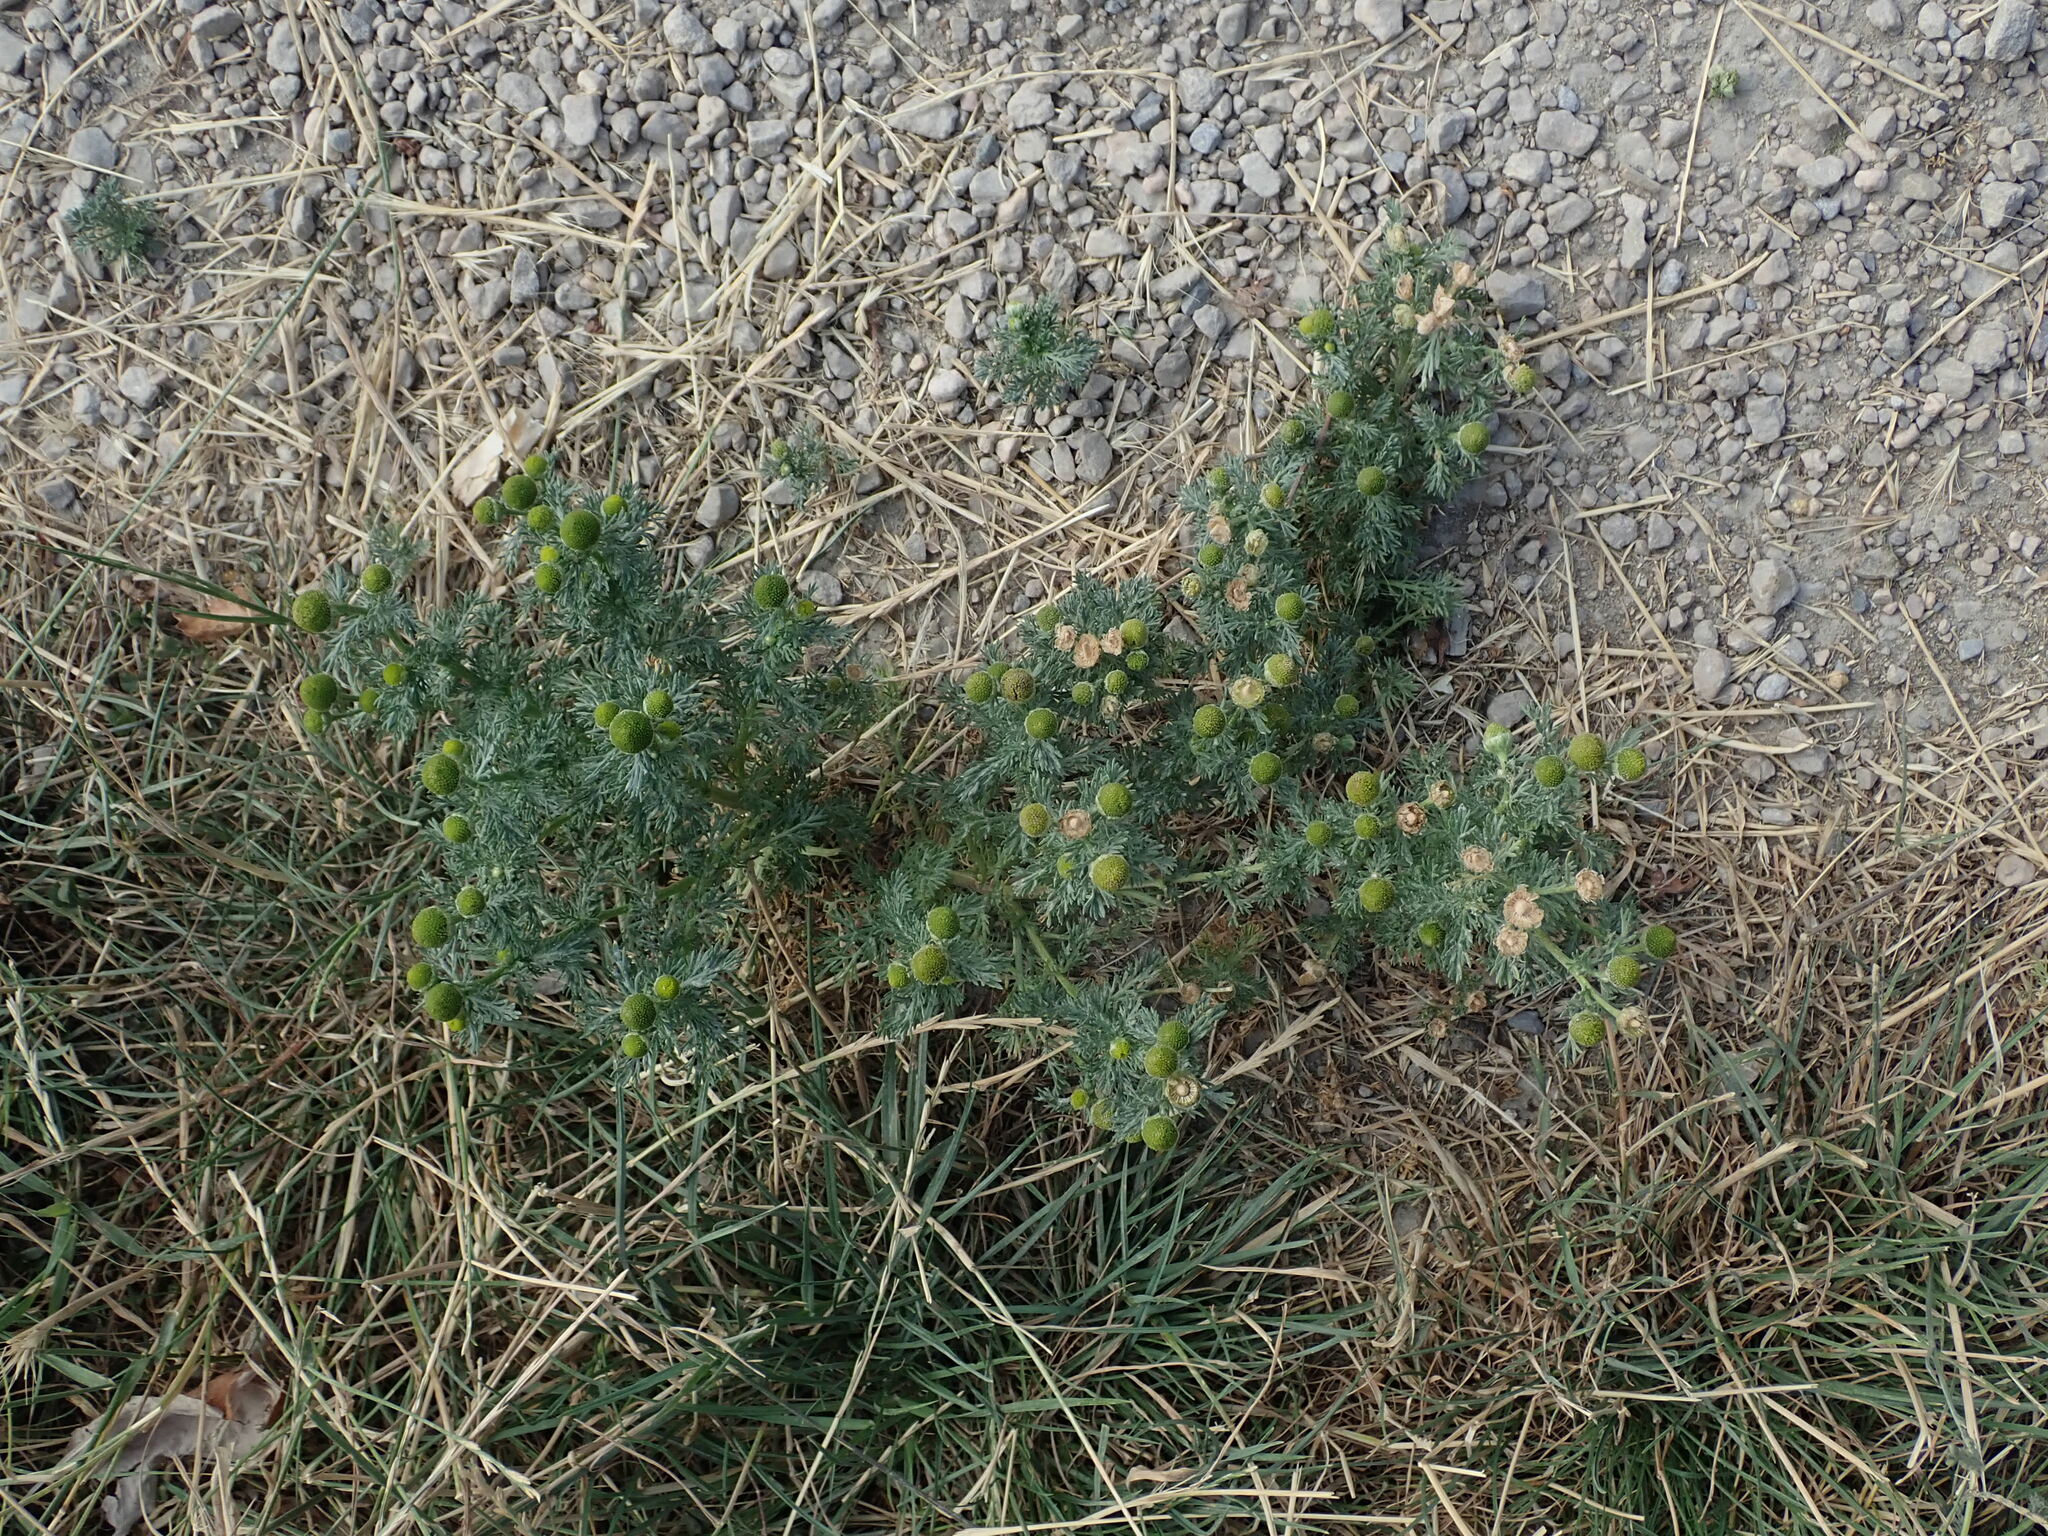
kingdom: Plantae
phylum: Tracheophyta
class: Magnoliopsida
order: Asterales
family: Asteraceae
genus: Matricaria
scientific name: Matricaria discoidea
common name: Disc mayweed
